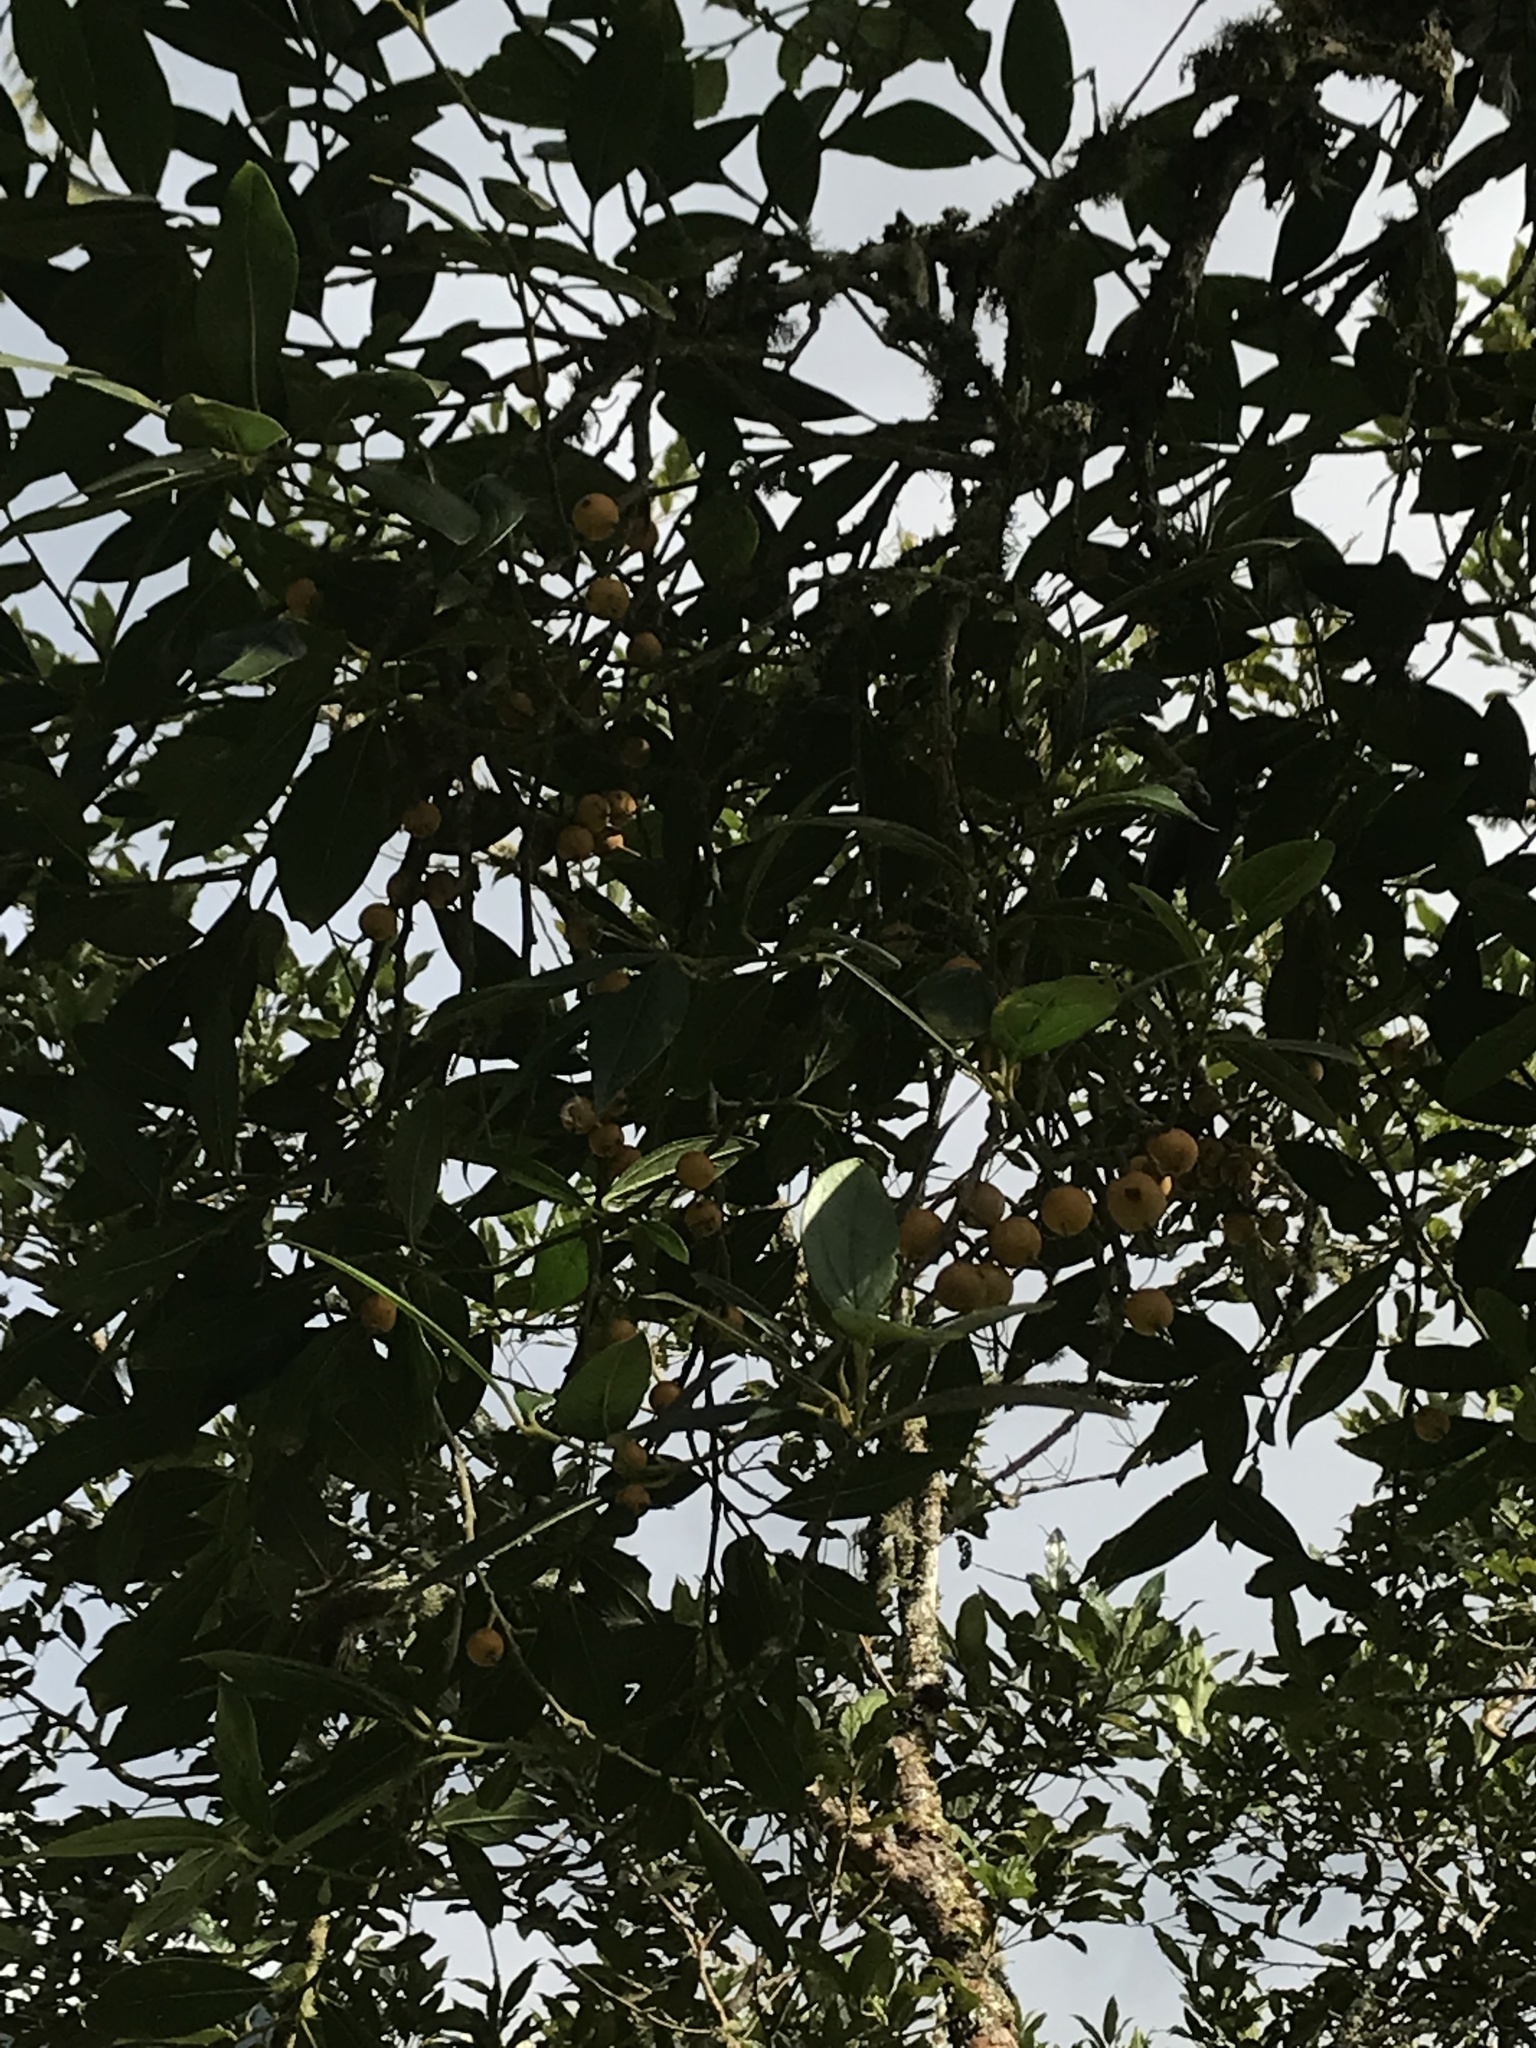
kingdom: Plantae
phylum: Tracheophyta
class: Magnoliopsida
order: Buxales
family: Buxaceae
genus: Styloceras
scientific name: Styloceras laurifolium
